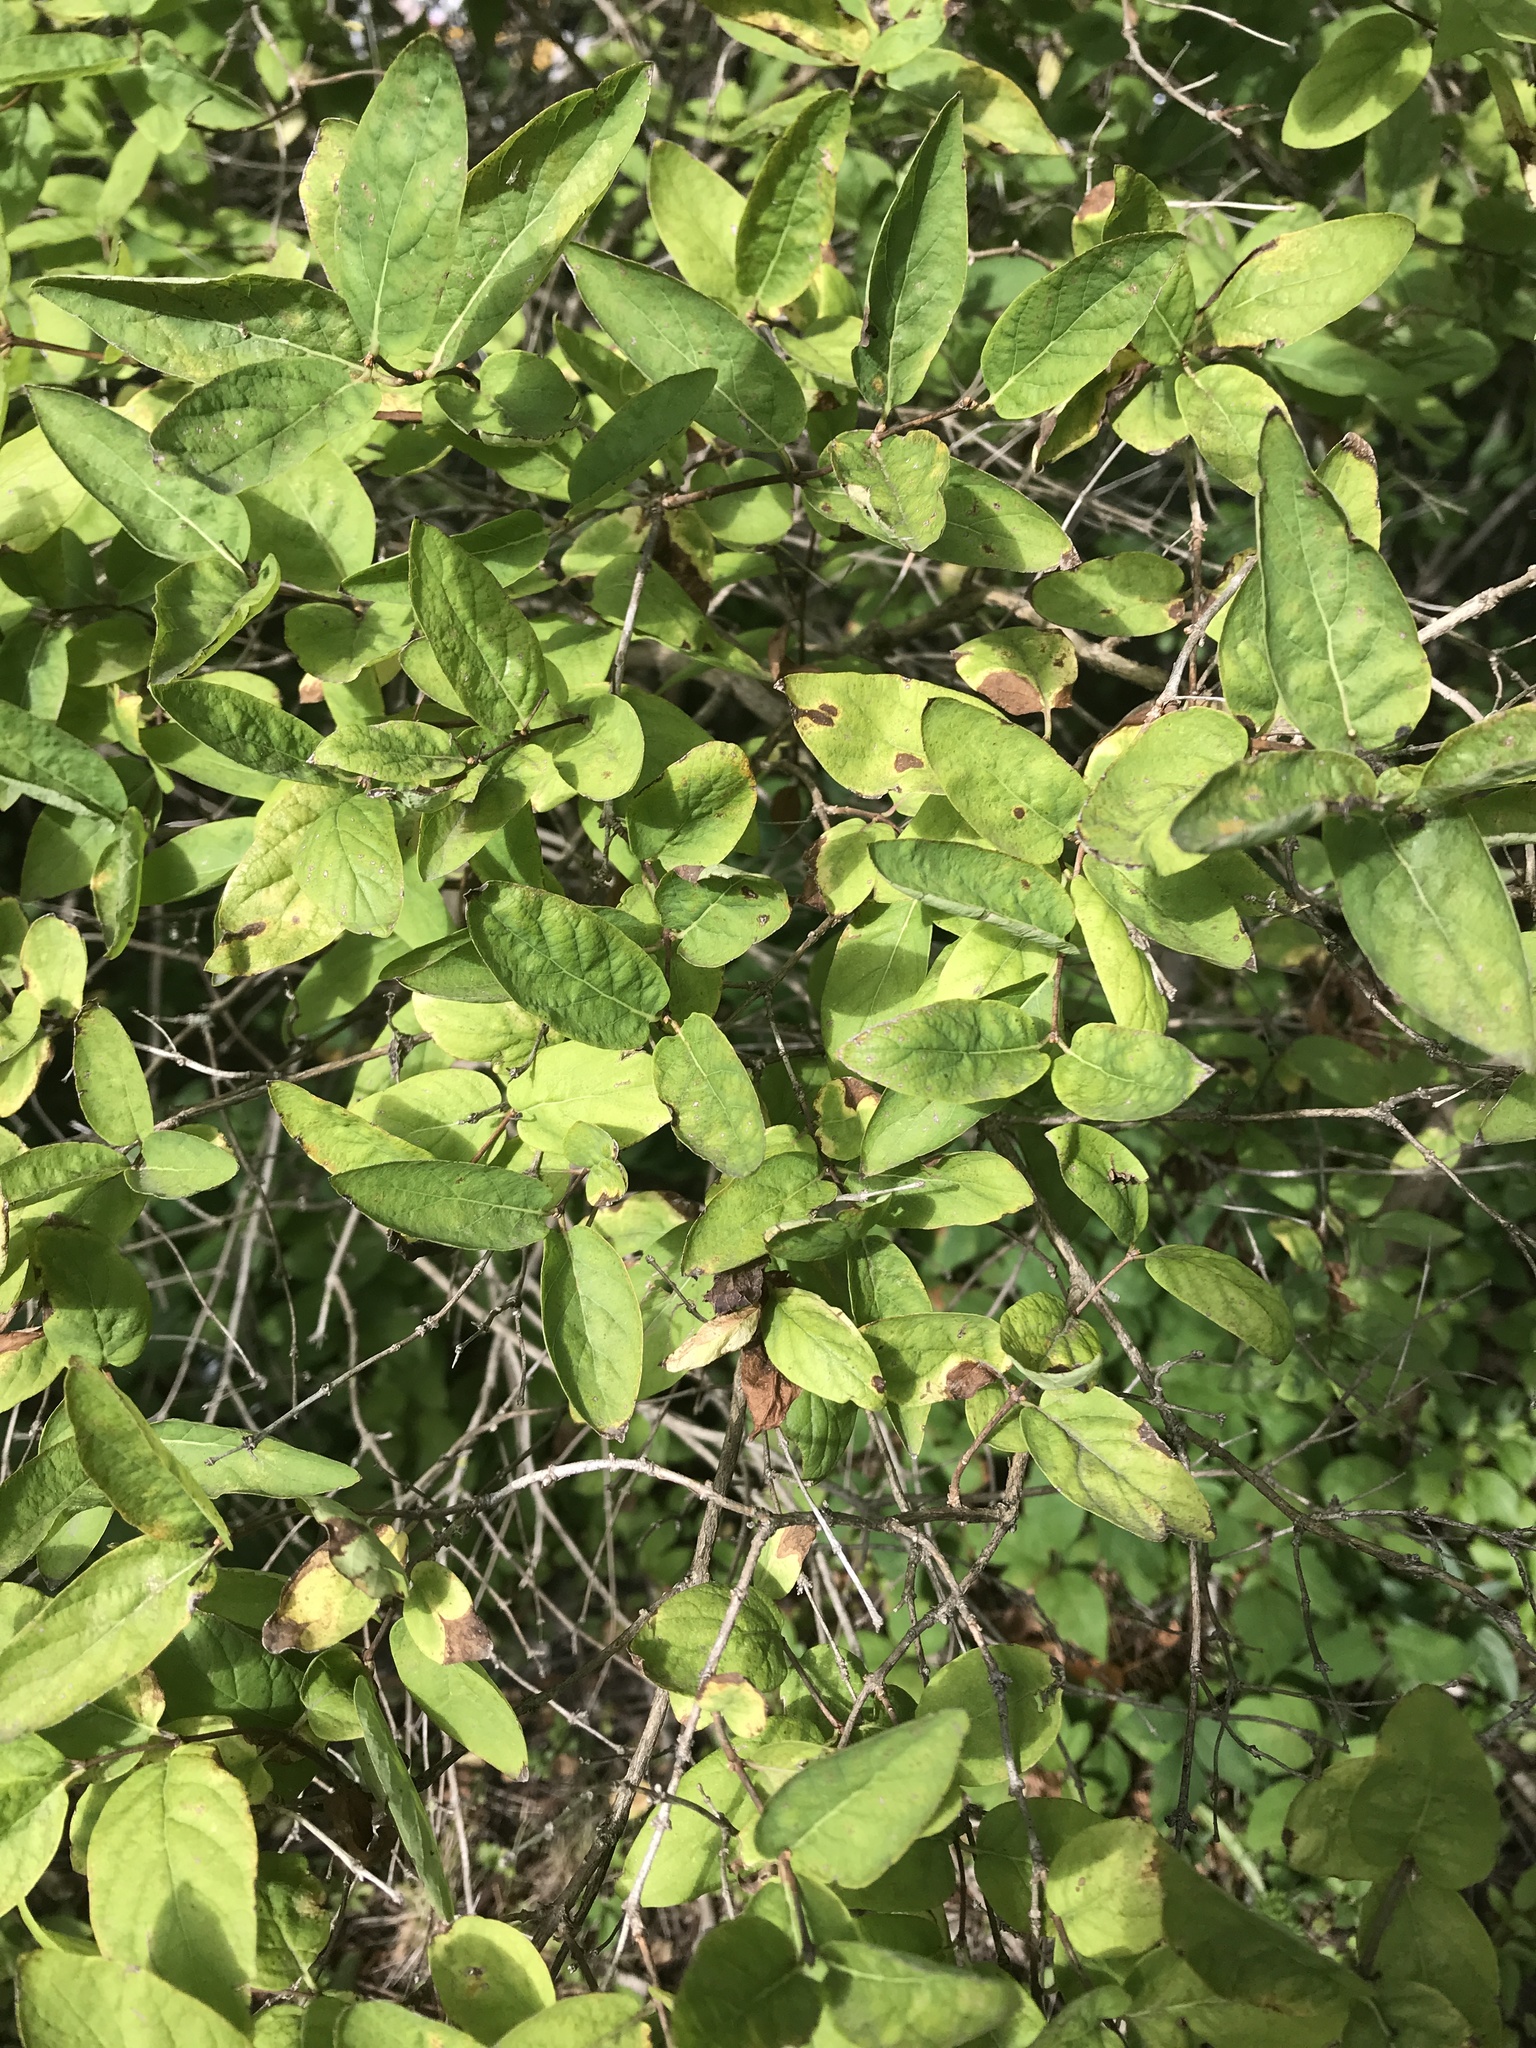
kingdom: Plantae
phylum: Tracheophyta
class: Magnoliopsida
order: Dipsacales
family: Caprifoliaceae
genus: Lonicera
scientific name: Lonicera
